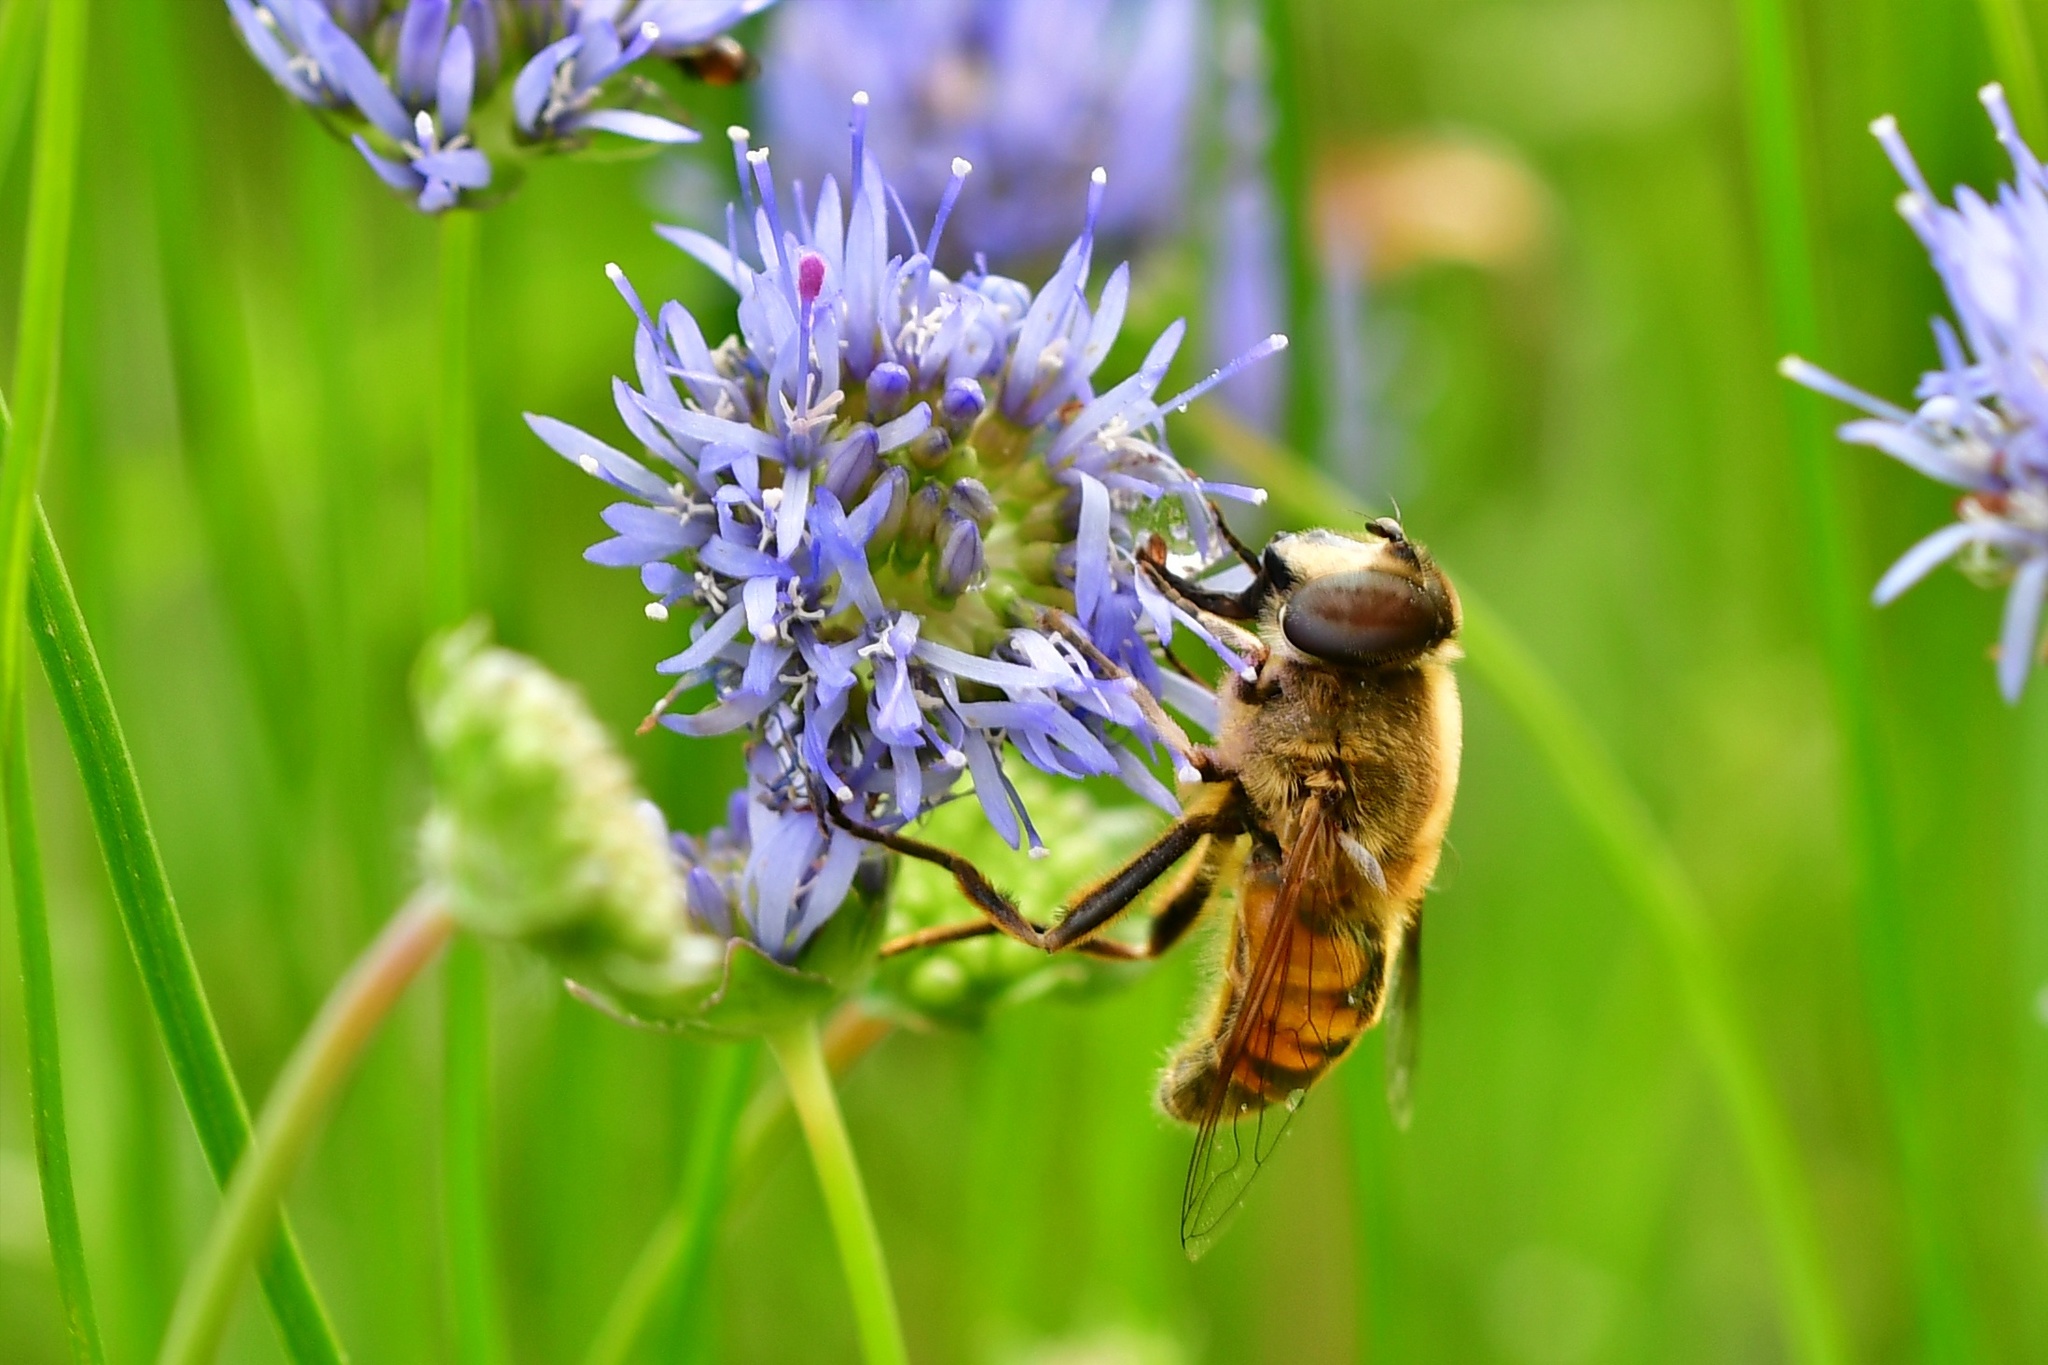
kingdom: Animalia
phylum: Arthropoda
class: Insecta
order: Diptera
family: Syrphidae
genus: Eristalis
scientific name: Eristalis tenax
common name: Drone fly
